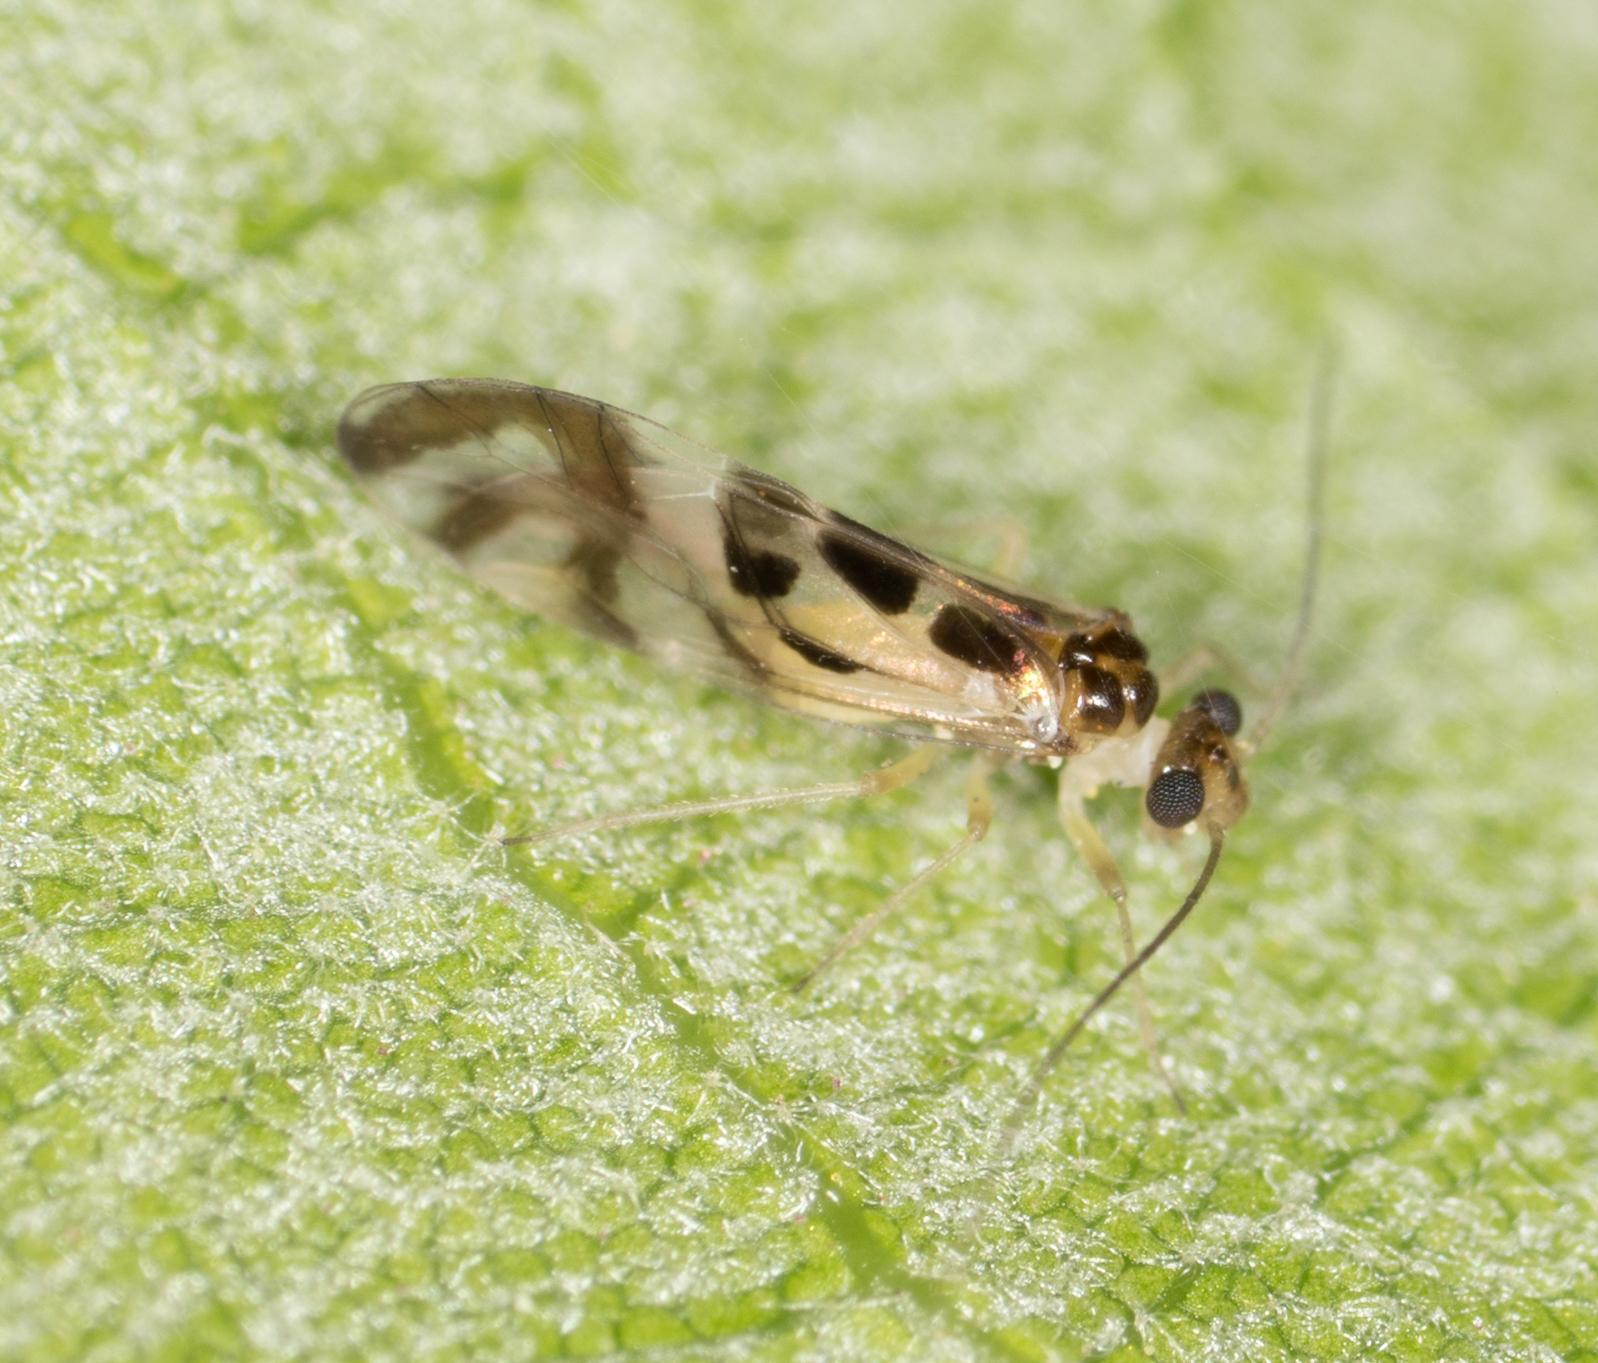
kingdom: Animalia
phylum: Arthropoda
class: Insecta
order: Psocodea
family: Stenopsocidae
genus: Graphopsocus
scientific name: Graphopsocus cruciatus
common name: Lizard bark louse
